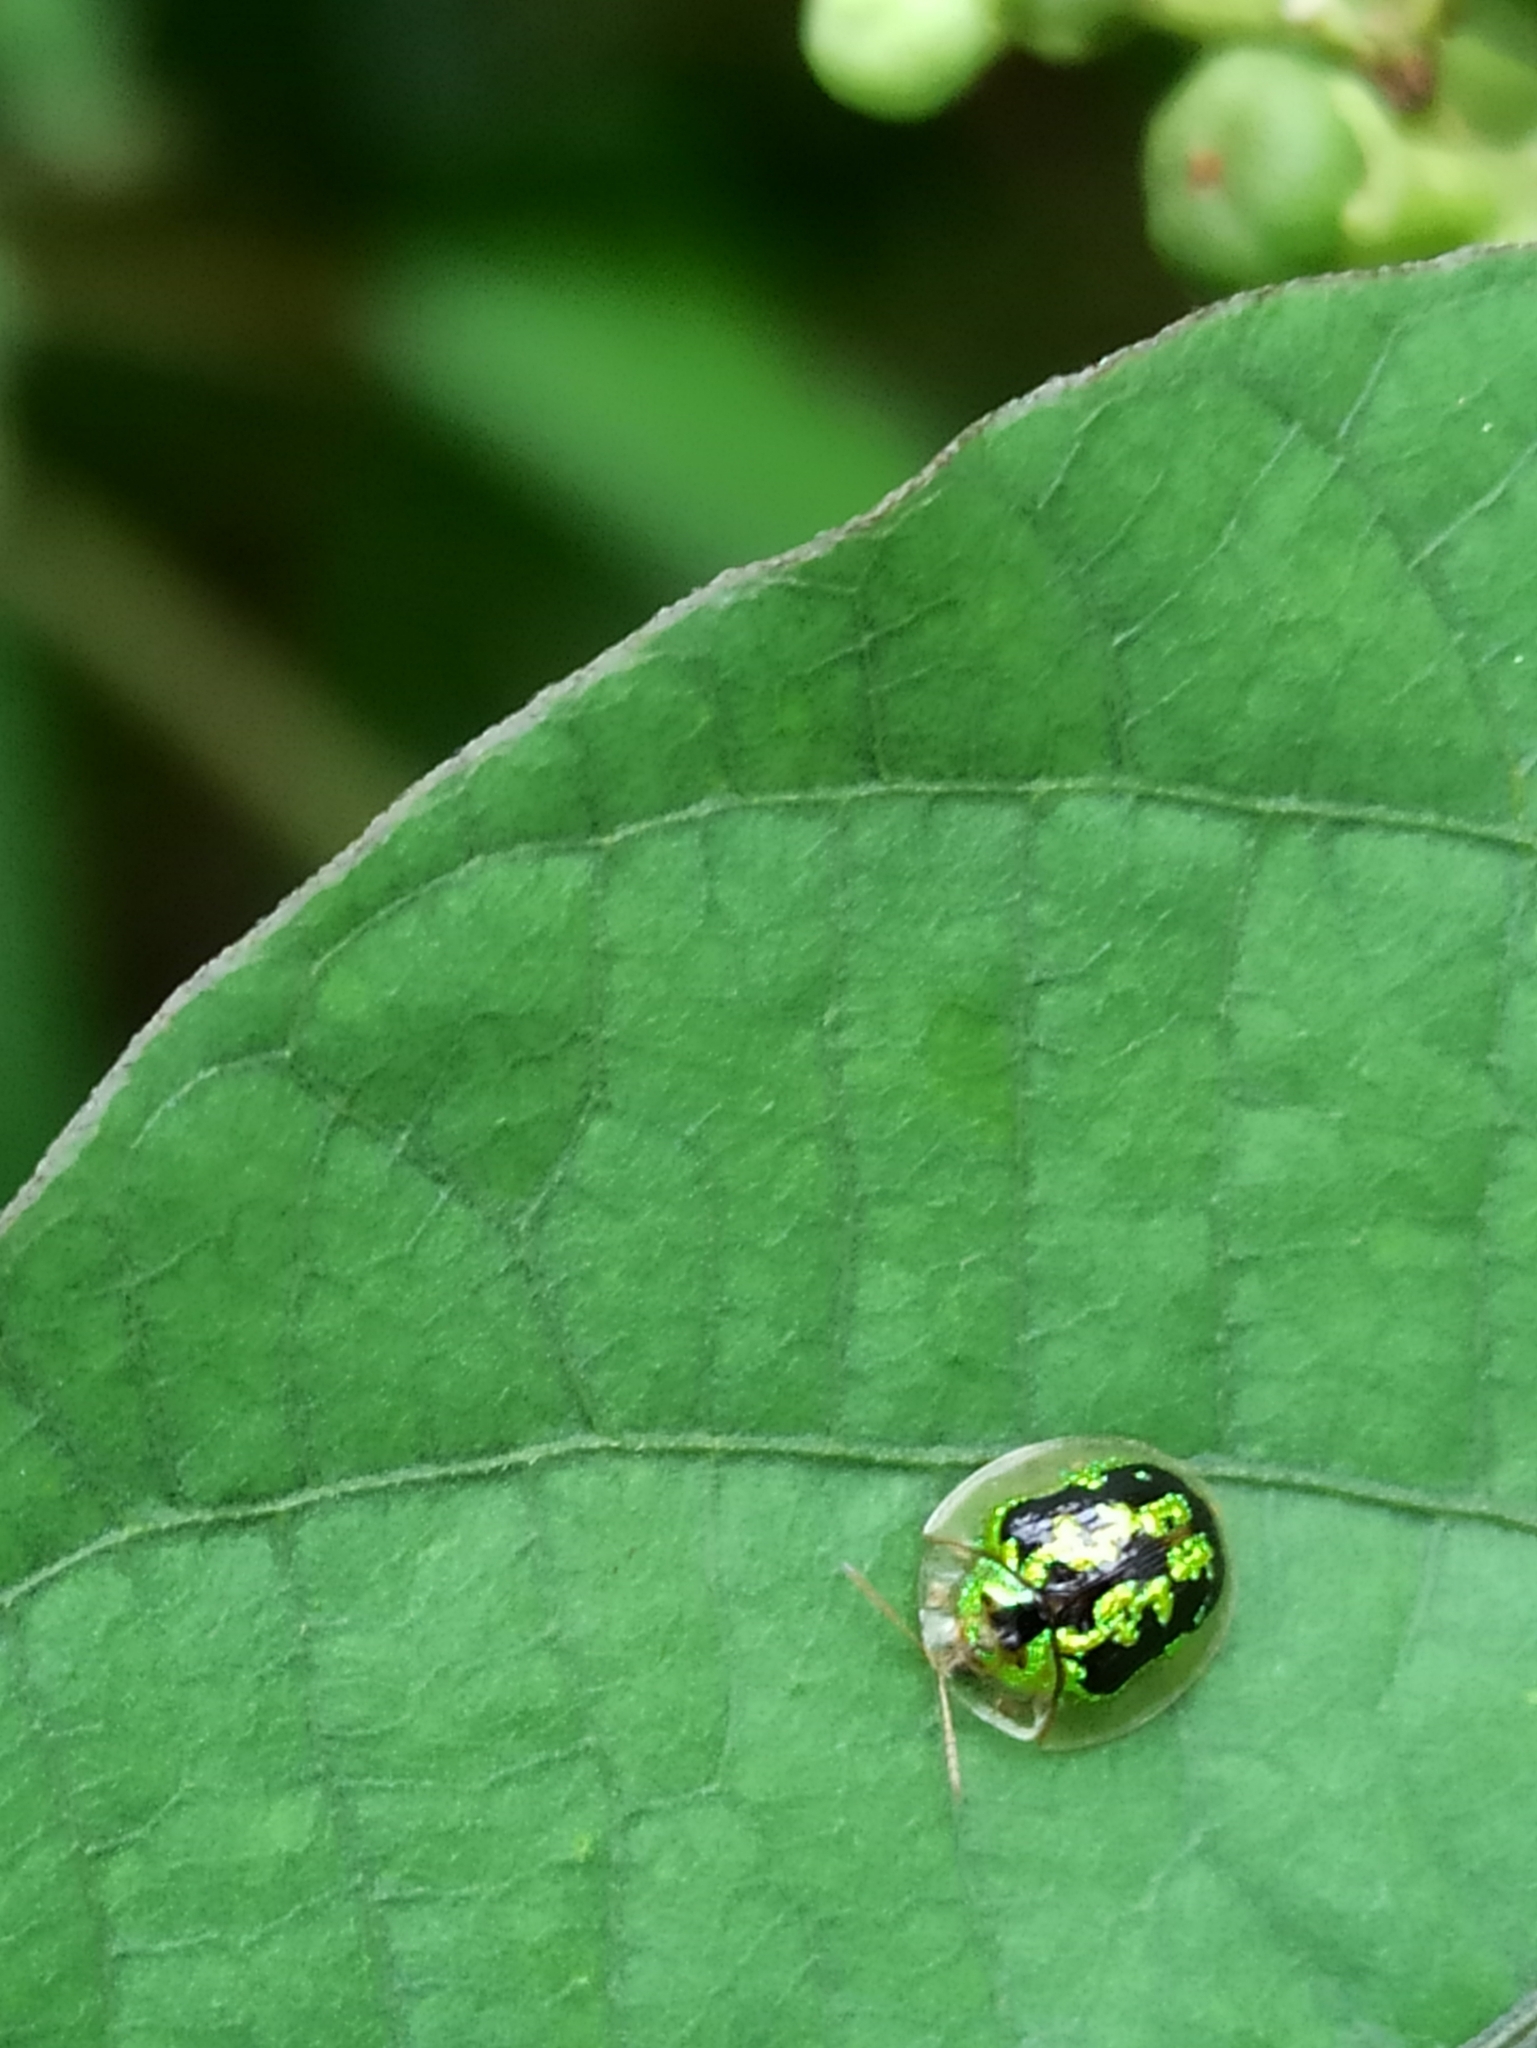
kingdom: Animalia
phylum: Arthropoda
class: Insecta
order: Coleoptera
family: Chrysomelidae
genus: Cassida
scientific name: Cassida circumdata
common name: Tortoise beetle
